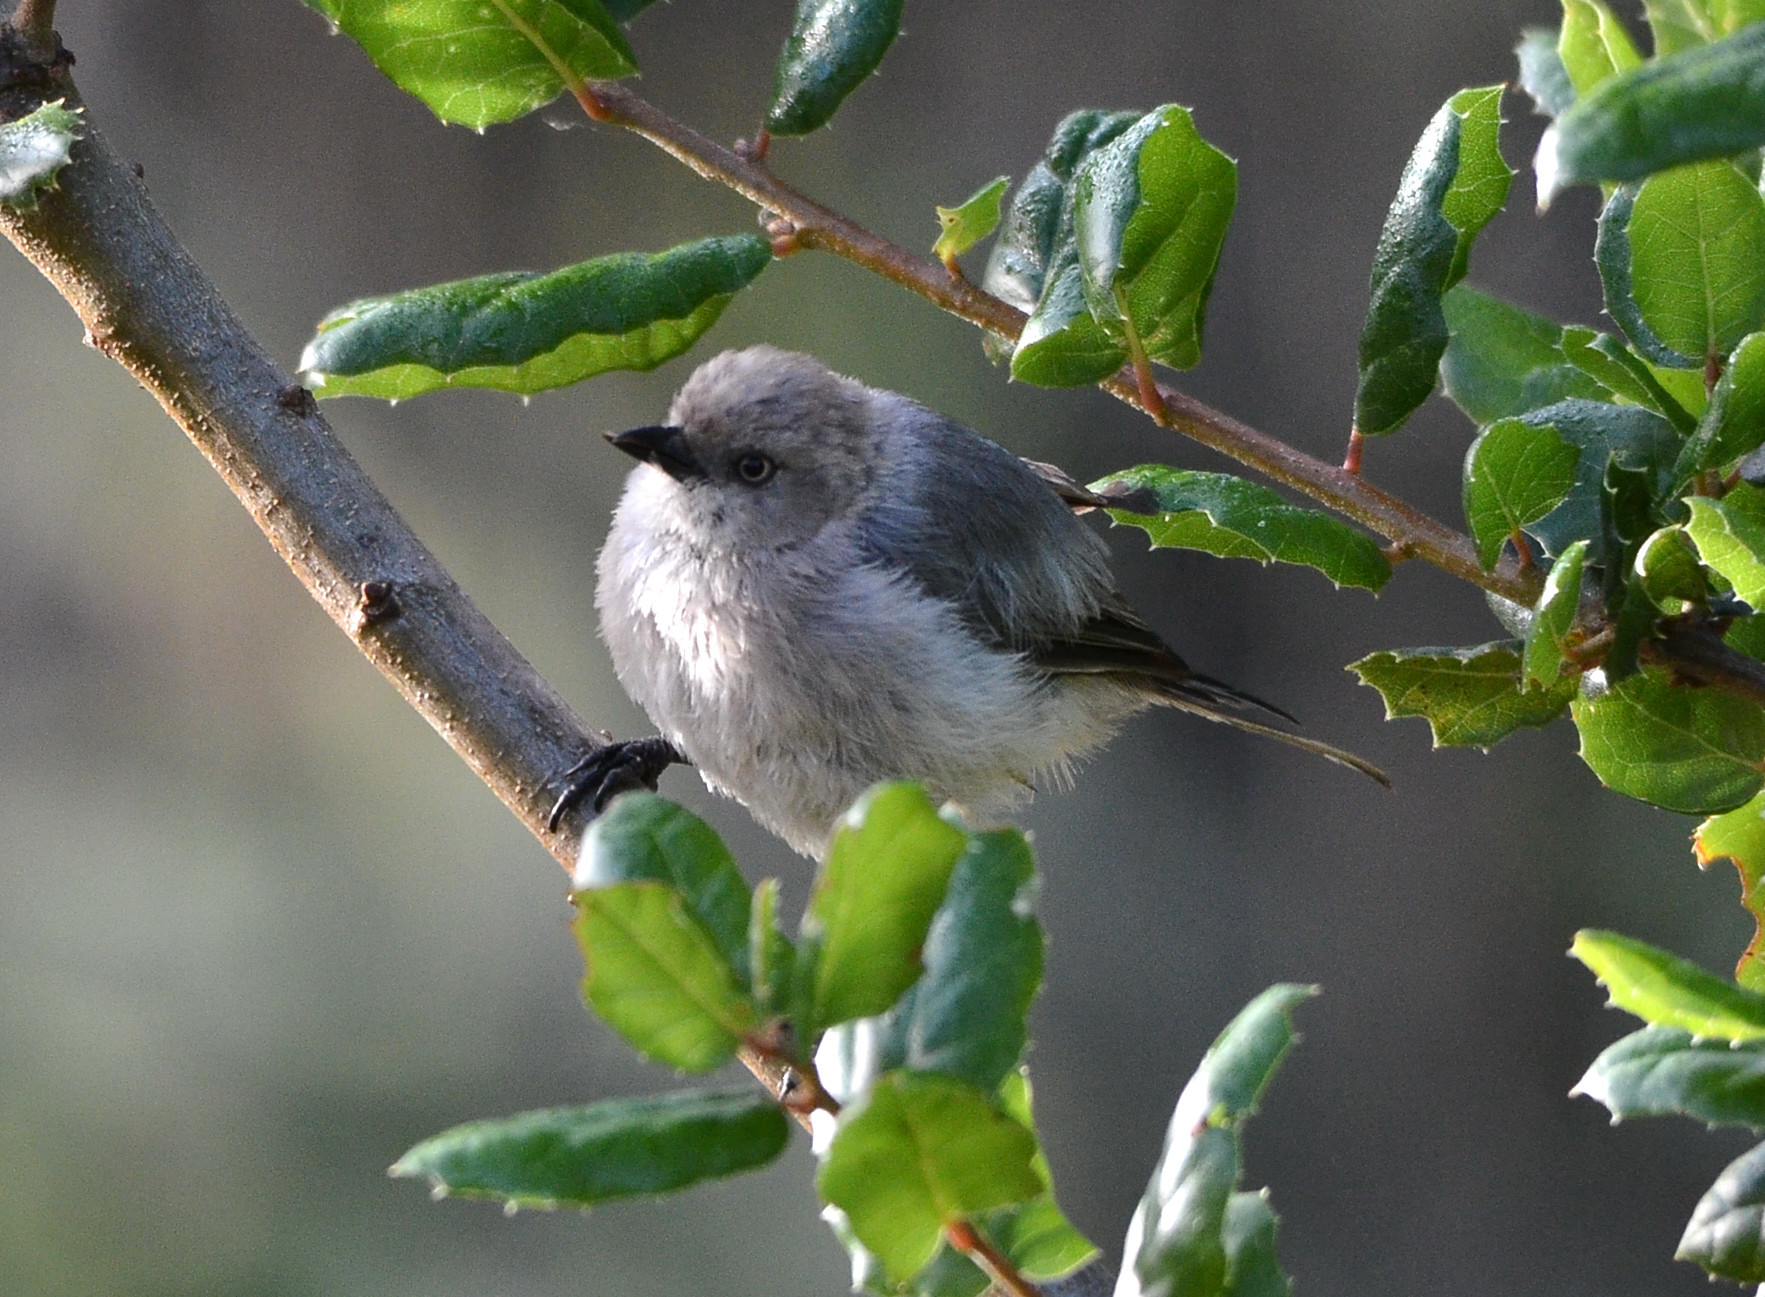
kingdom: Animalia
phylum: Chordata
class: Aves
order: Passeriformes
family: Aegithalidae
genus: Psaltriparus
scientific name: Psaltriparus minimus
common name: American bushtit
